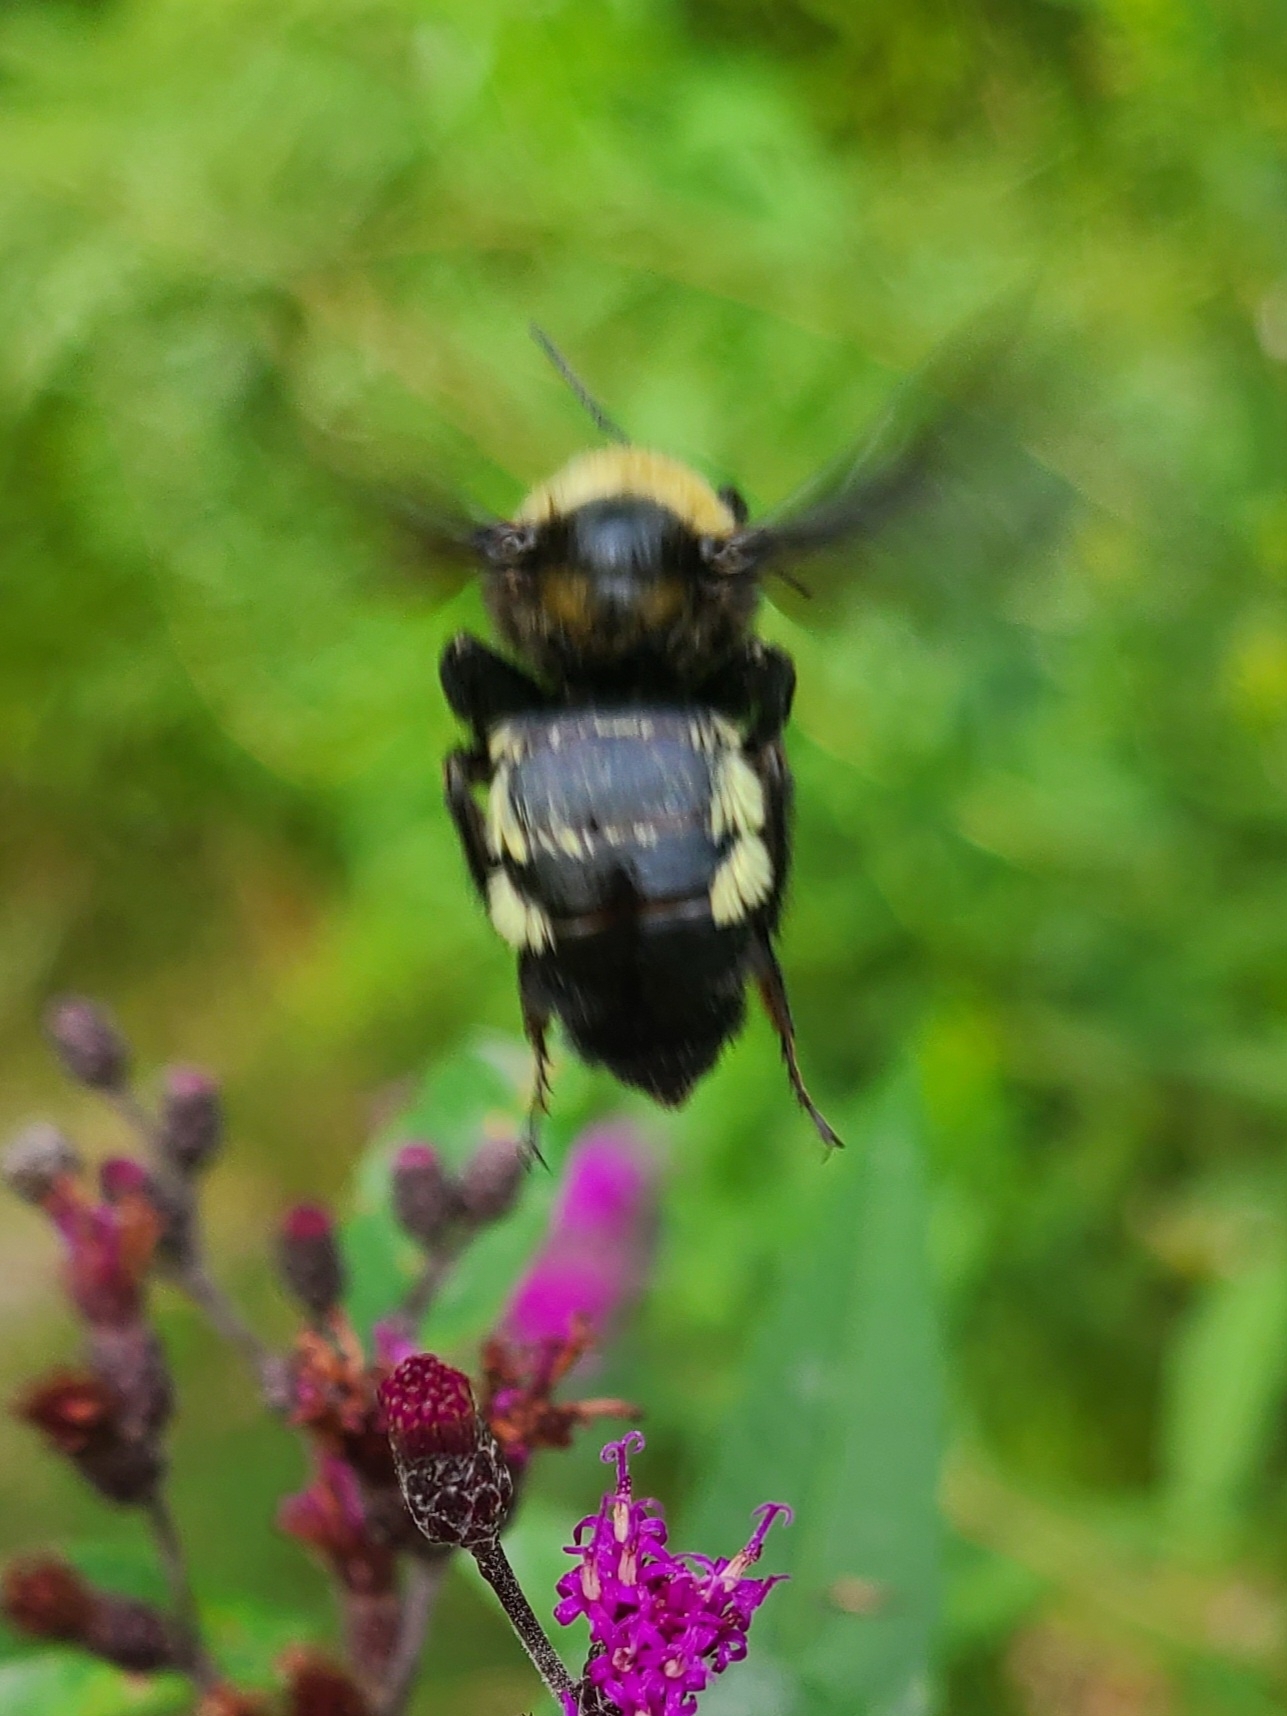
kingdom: Animalia
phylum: Arthropoda
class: Insecta
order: Hymenoptera
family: Apidae
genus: Bombus
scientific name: Bombus pensylvanicus
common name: Bumble bee
